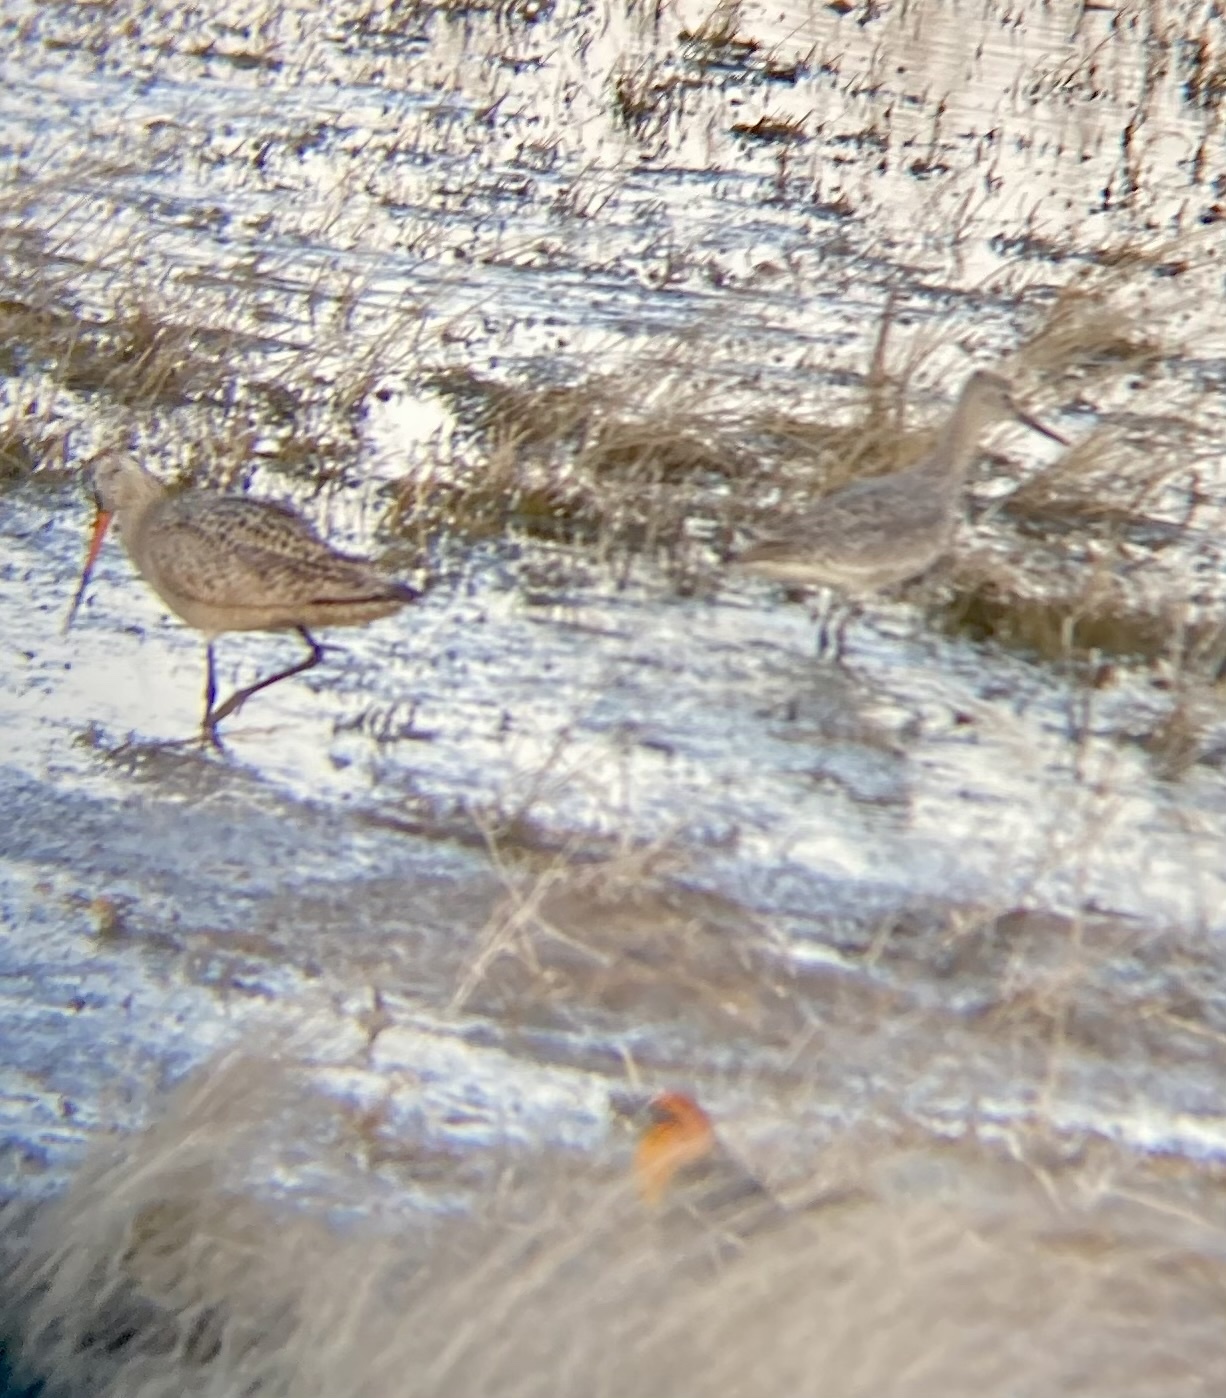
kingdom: Animalia
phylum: Chordata
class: Aves
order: Charadriiformes
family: Scolopacidae
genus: Tringa
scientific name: Tringa semipalmata
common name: Willet
